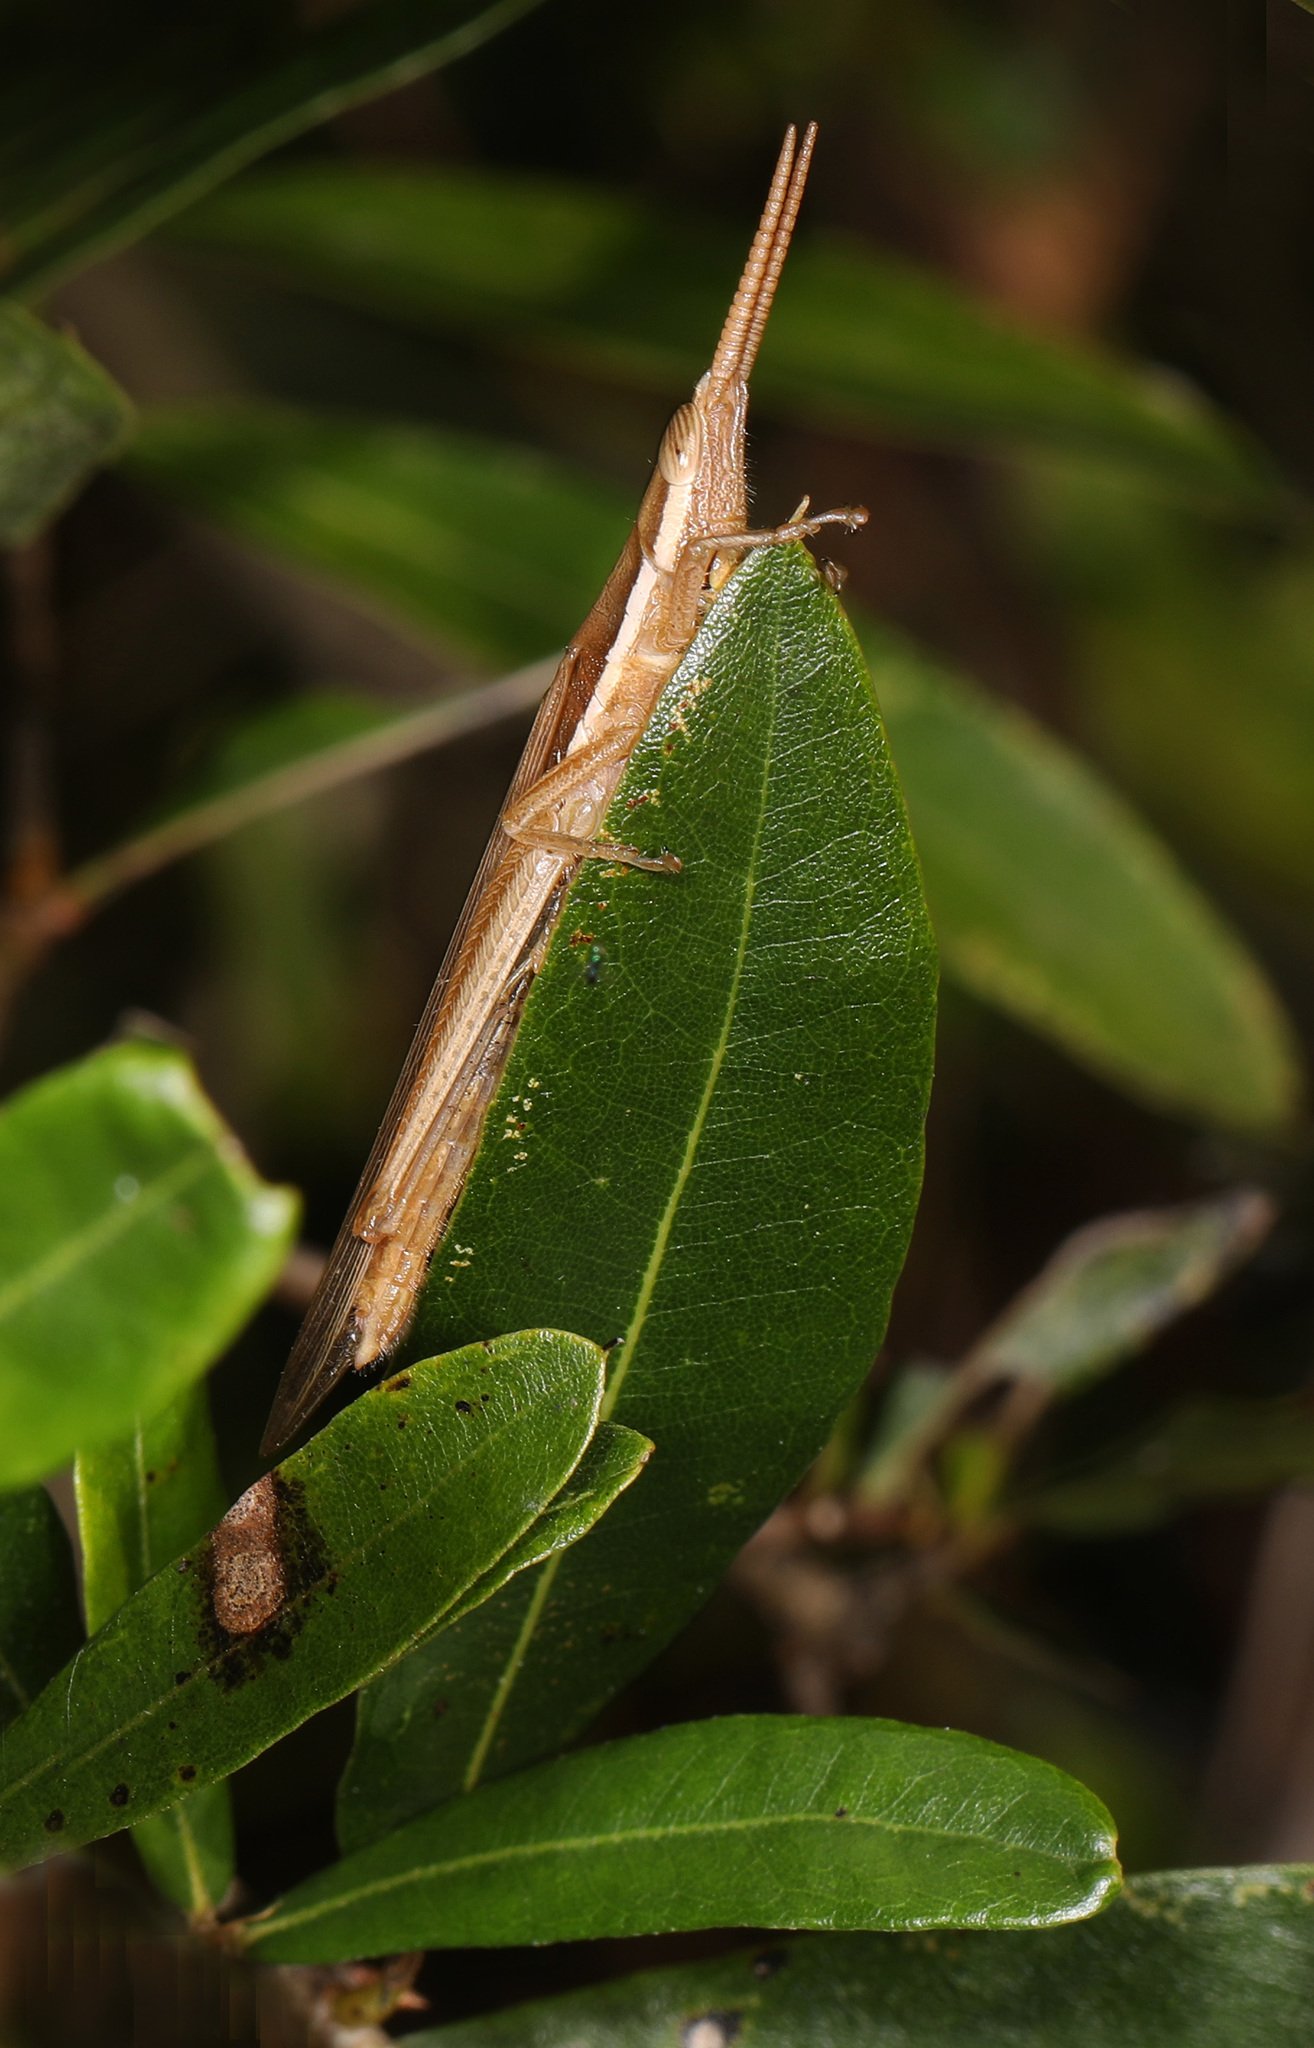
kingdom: Animalia
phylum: Arthropoda
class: Insecta
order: Orthoptera
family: Acrididae
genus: Leptysma
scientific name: Leptysma marginicollis
